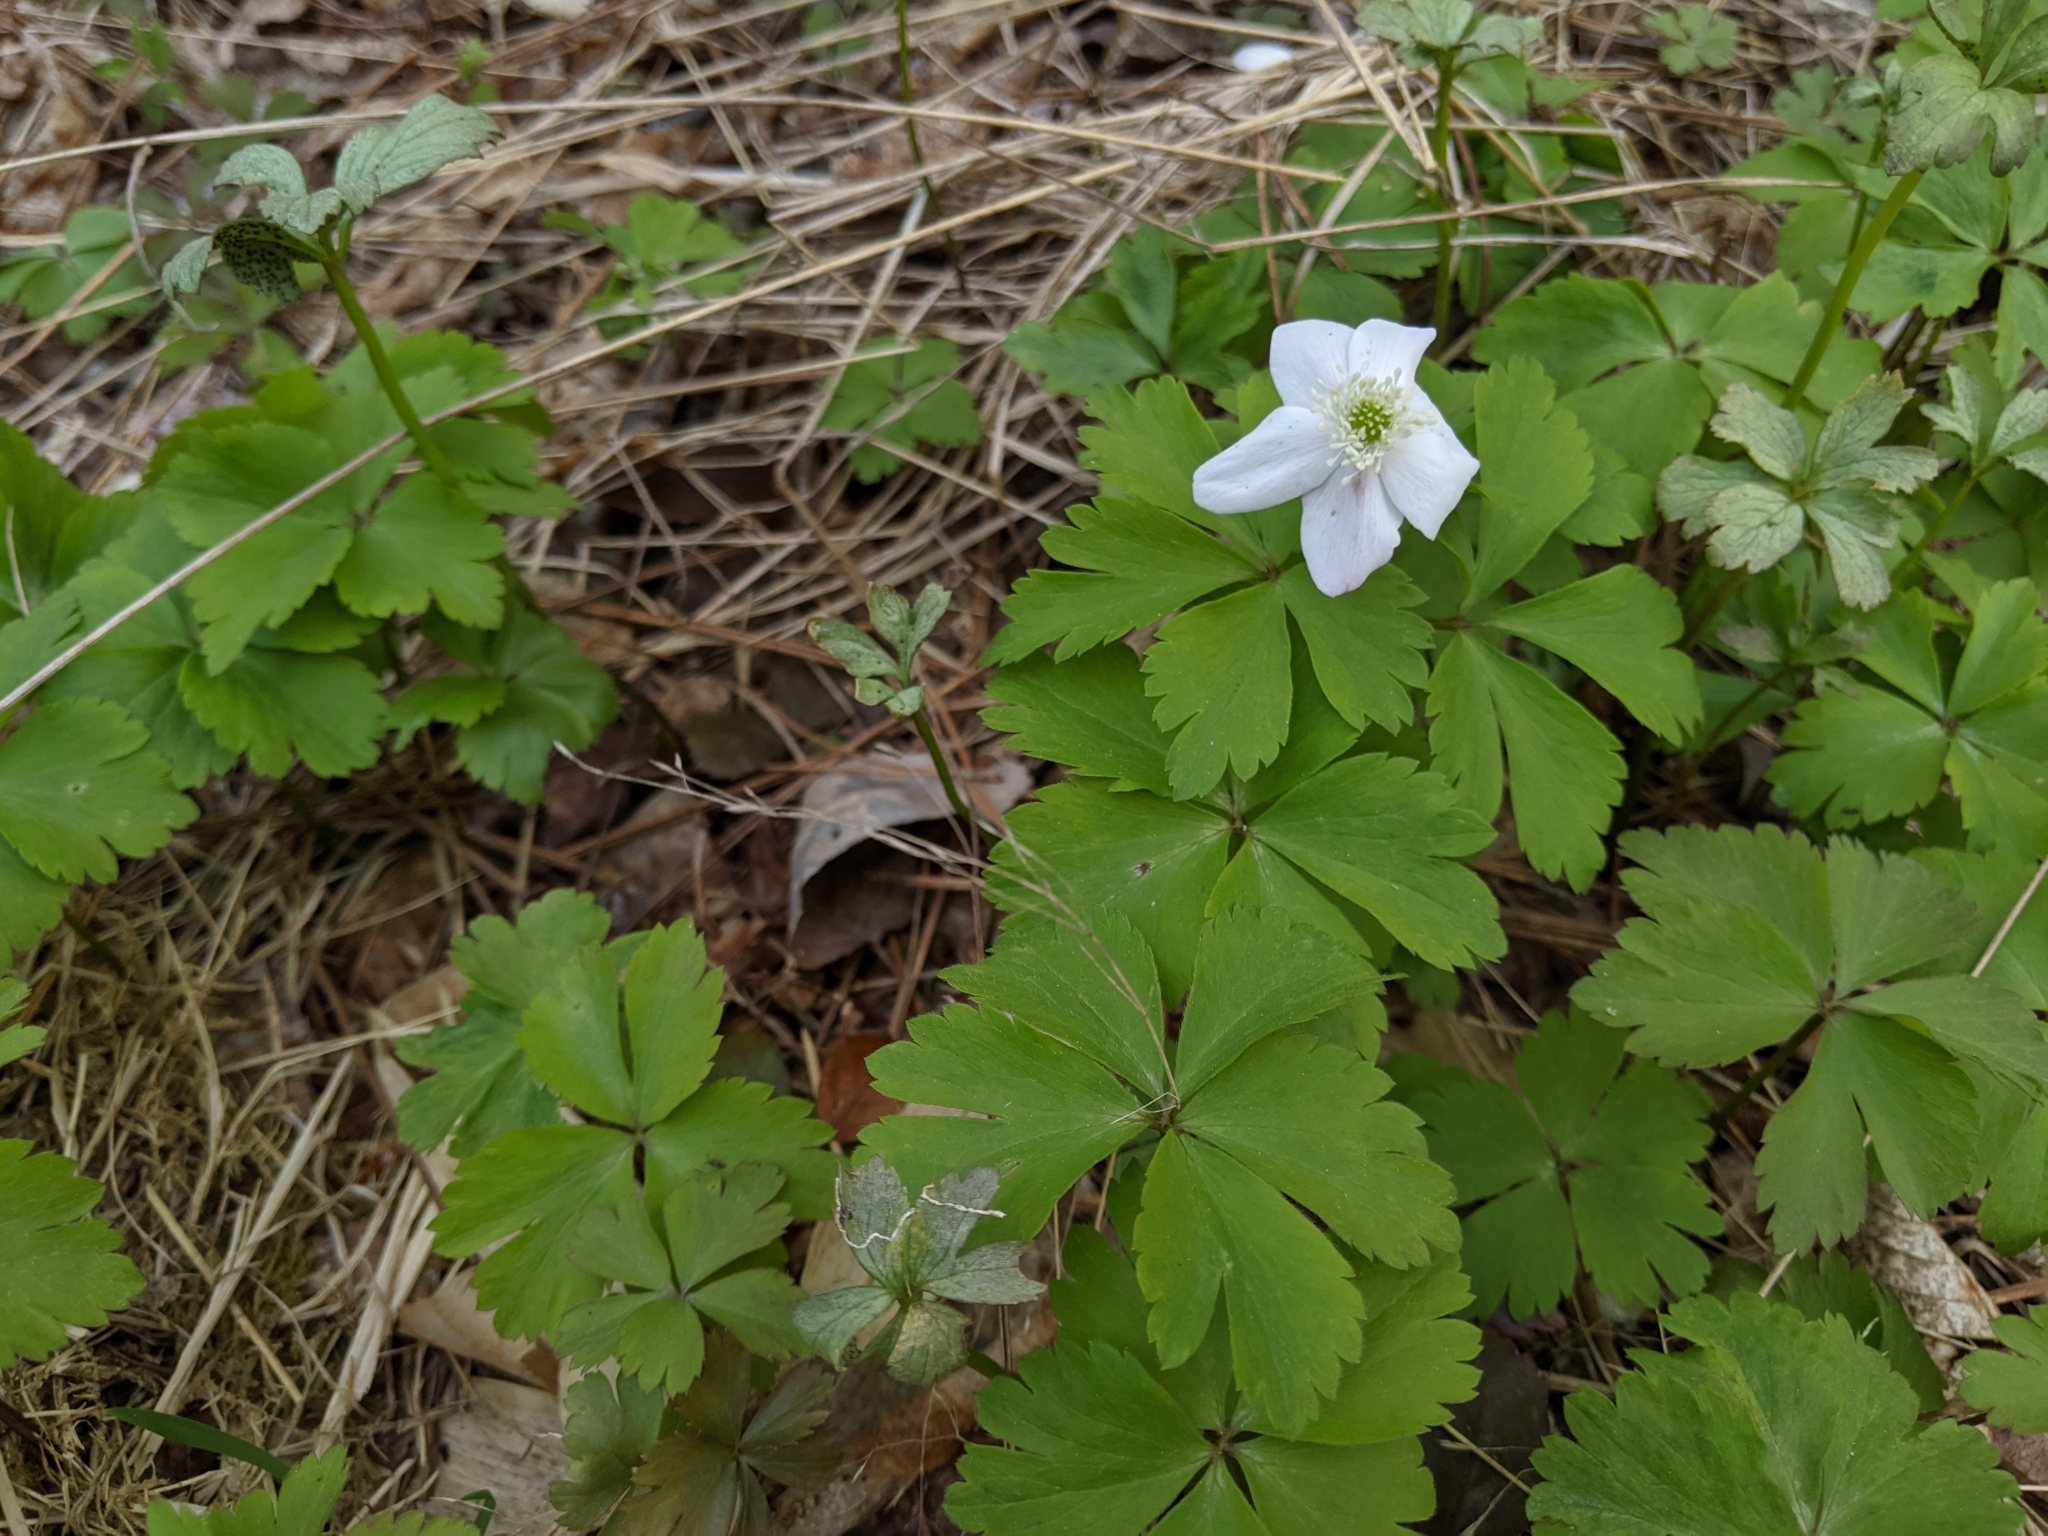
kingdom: Plantae
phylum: Tracheophyta
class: Magnoliopsida
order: Ranunculales
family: Ranunculaceae
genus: Anemone
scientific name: Anemone quinquefolia
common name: Wood anemone
